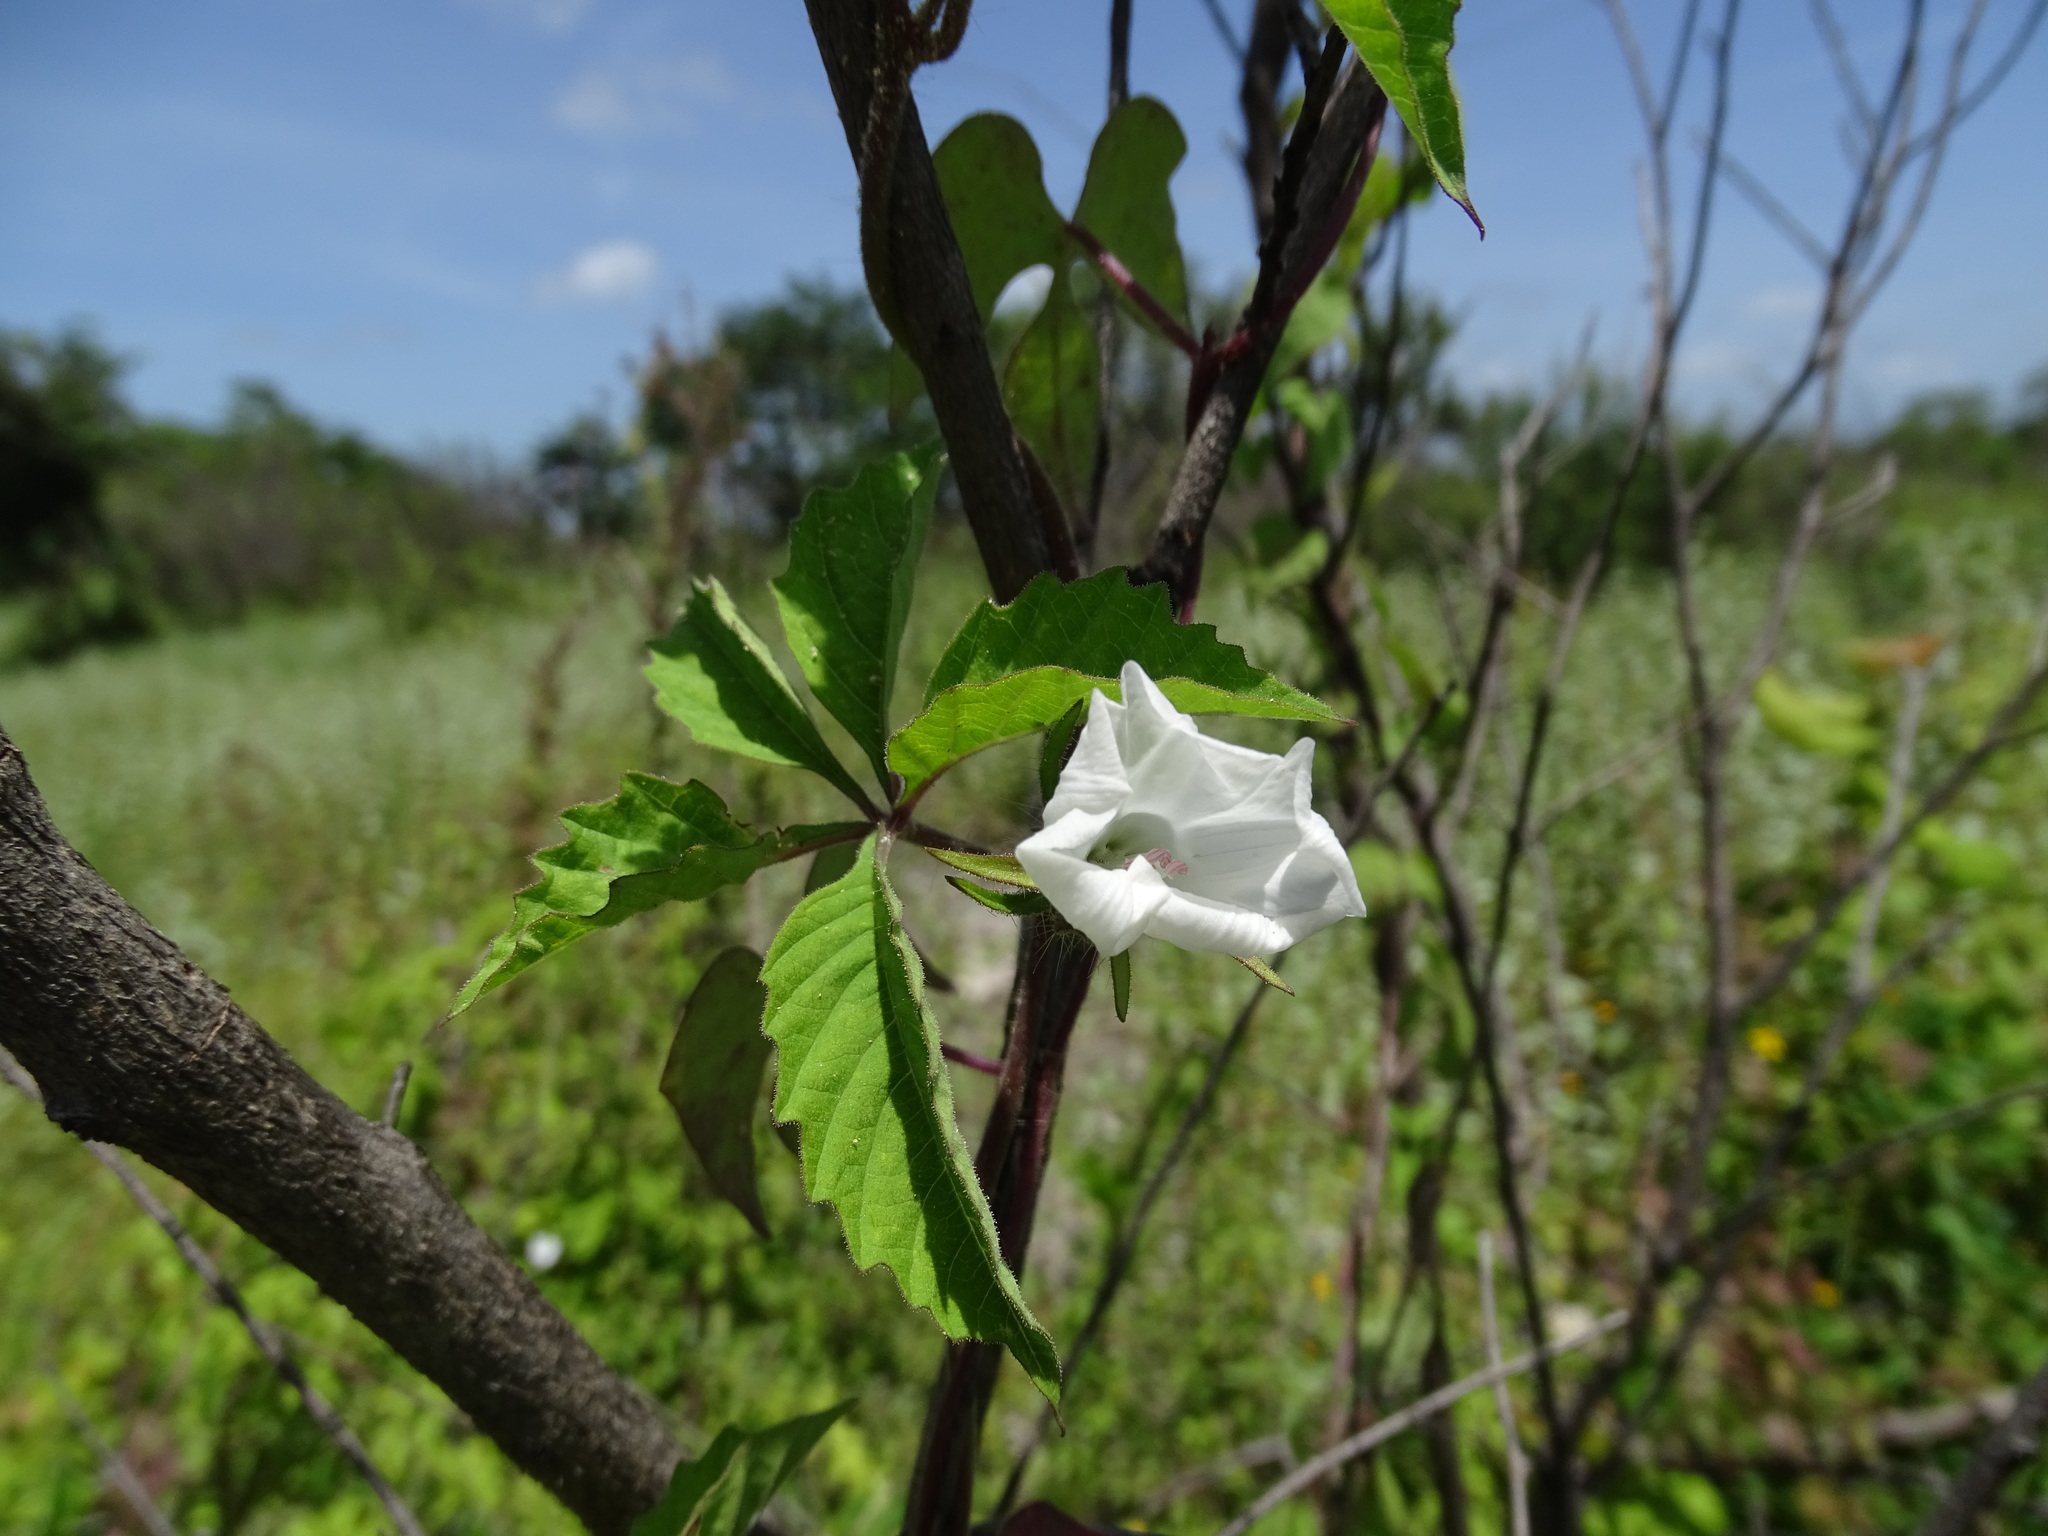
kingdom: Plantae
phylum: Tracheophyta
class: Magnoliopsida
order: Solanales
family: Convolvulaceae
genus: Distimake
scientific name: Distimake cissoides
